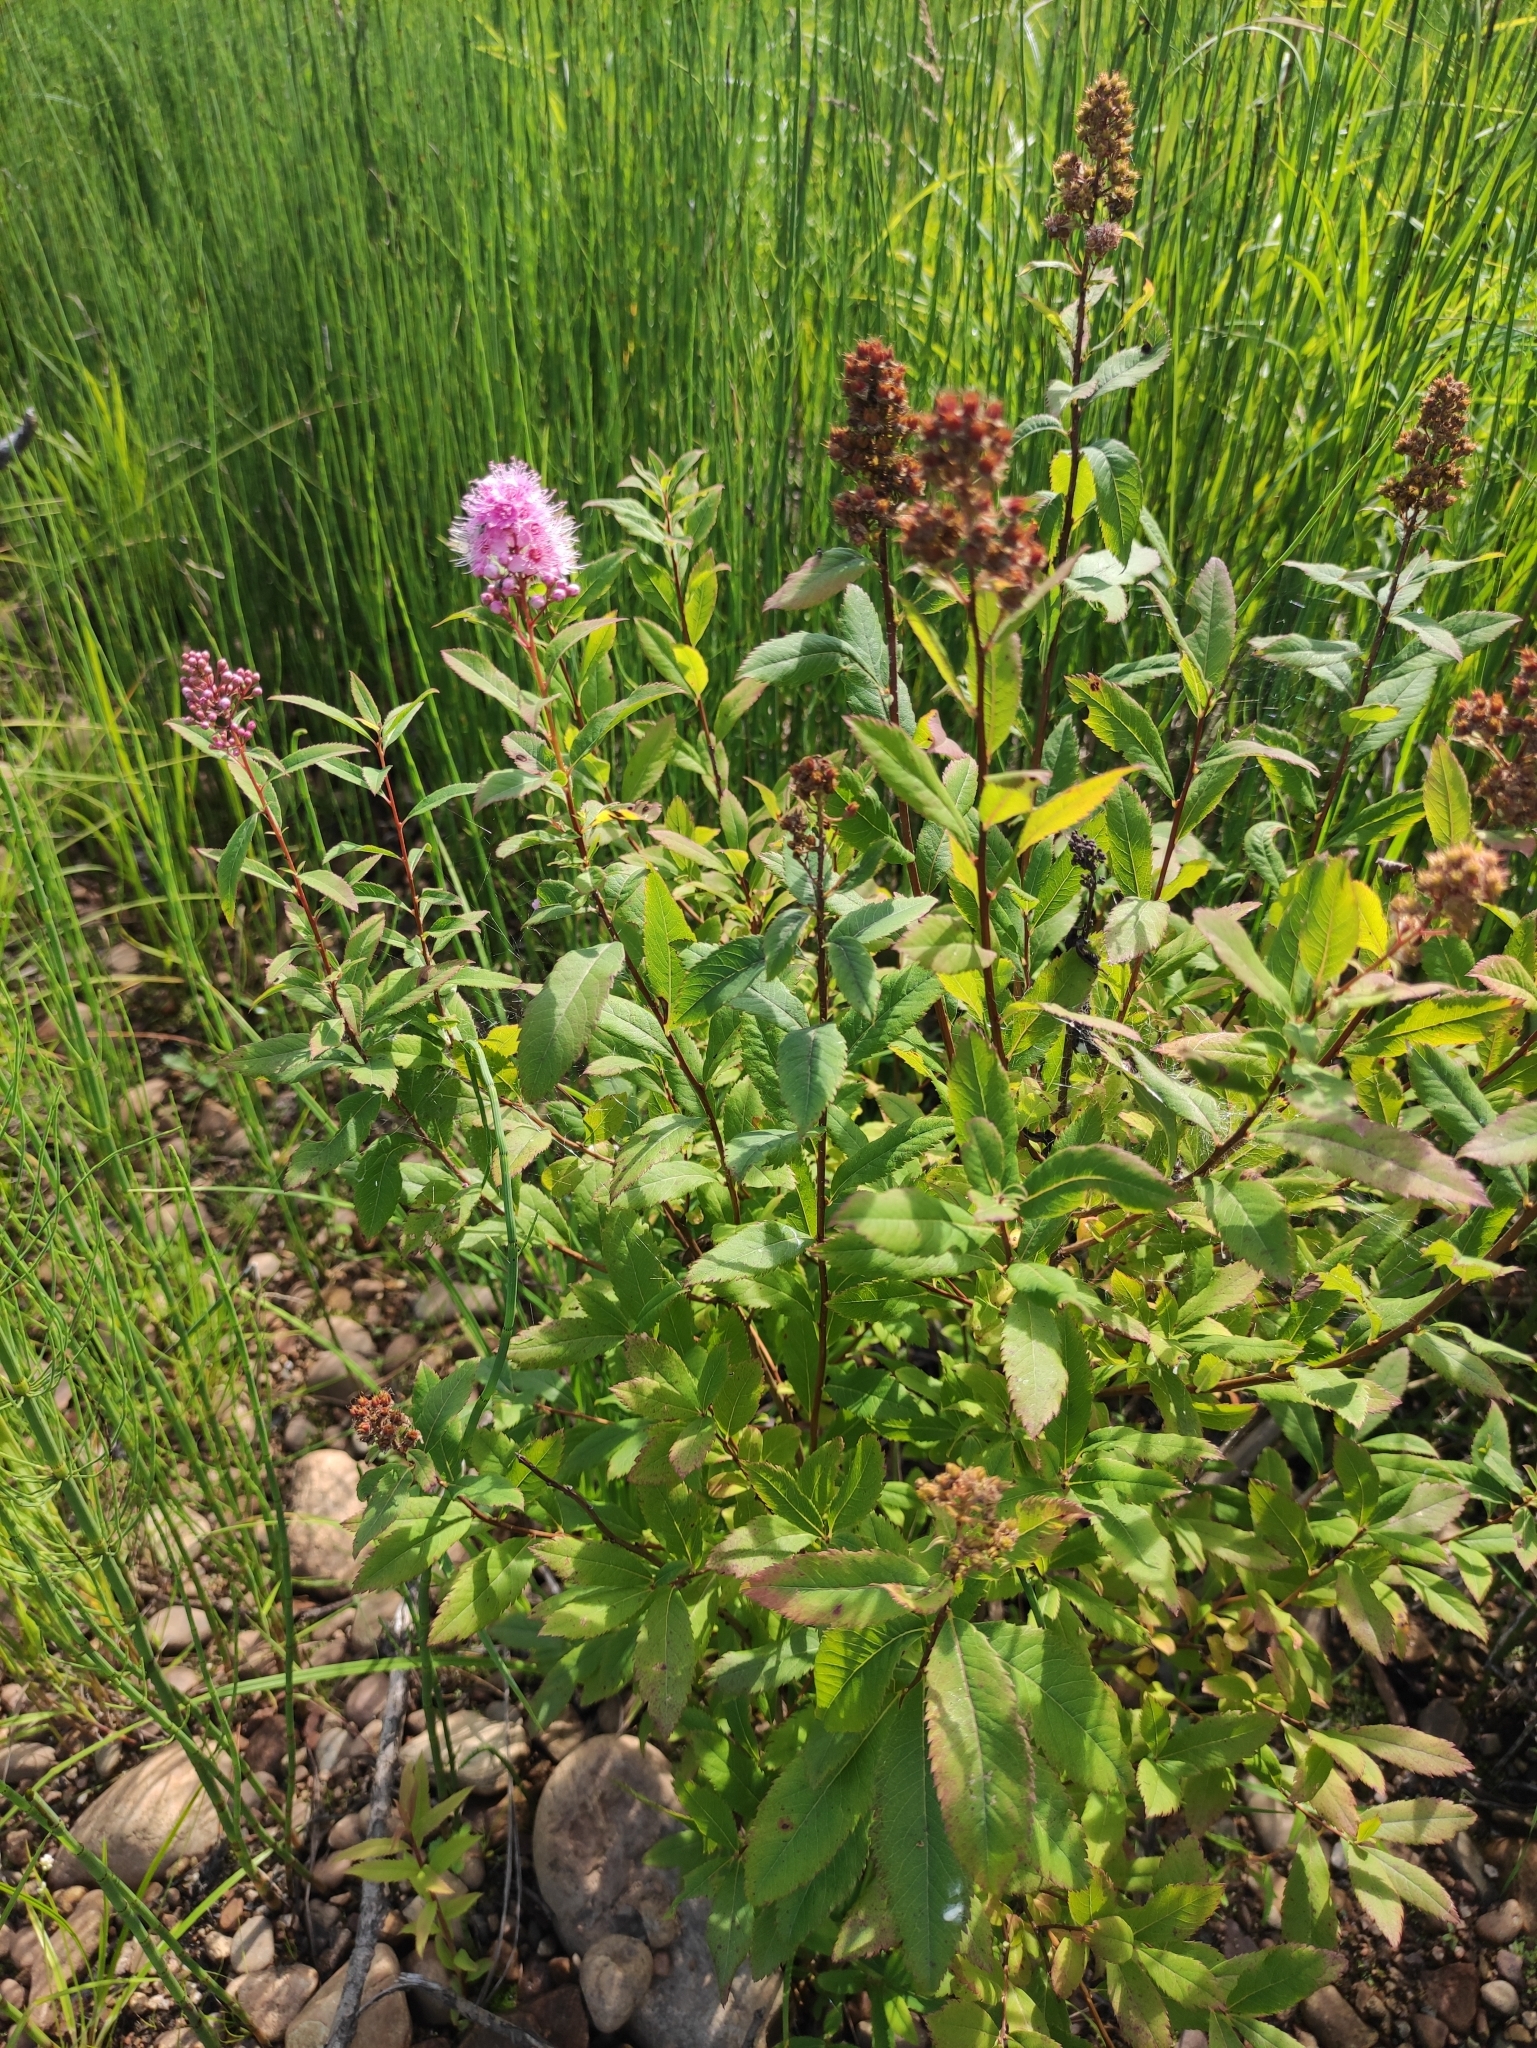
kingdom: Plantae
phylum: Tracheophyta
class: Magnoliopsida
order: Rosales
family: Rosaceae
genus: Spiraea
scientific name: Spiraea salicifolia
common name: Bridewort
